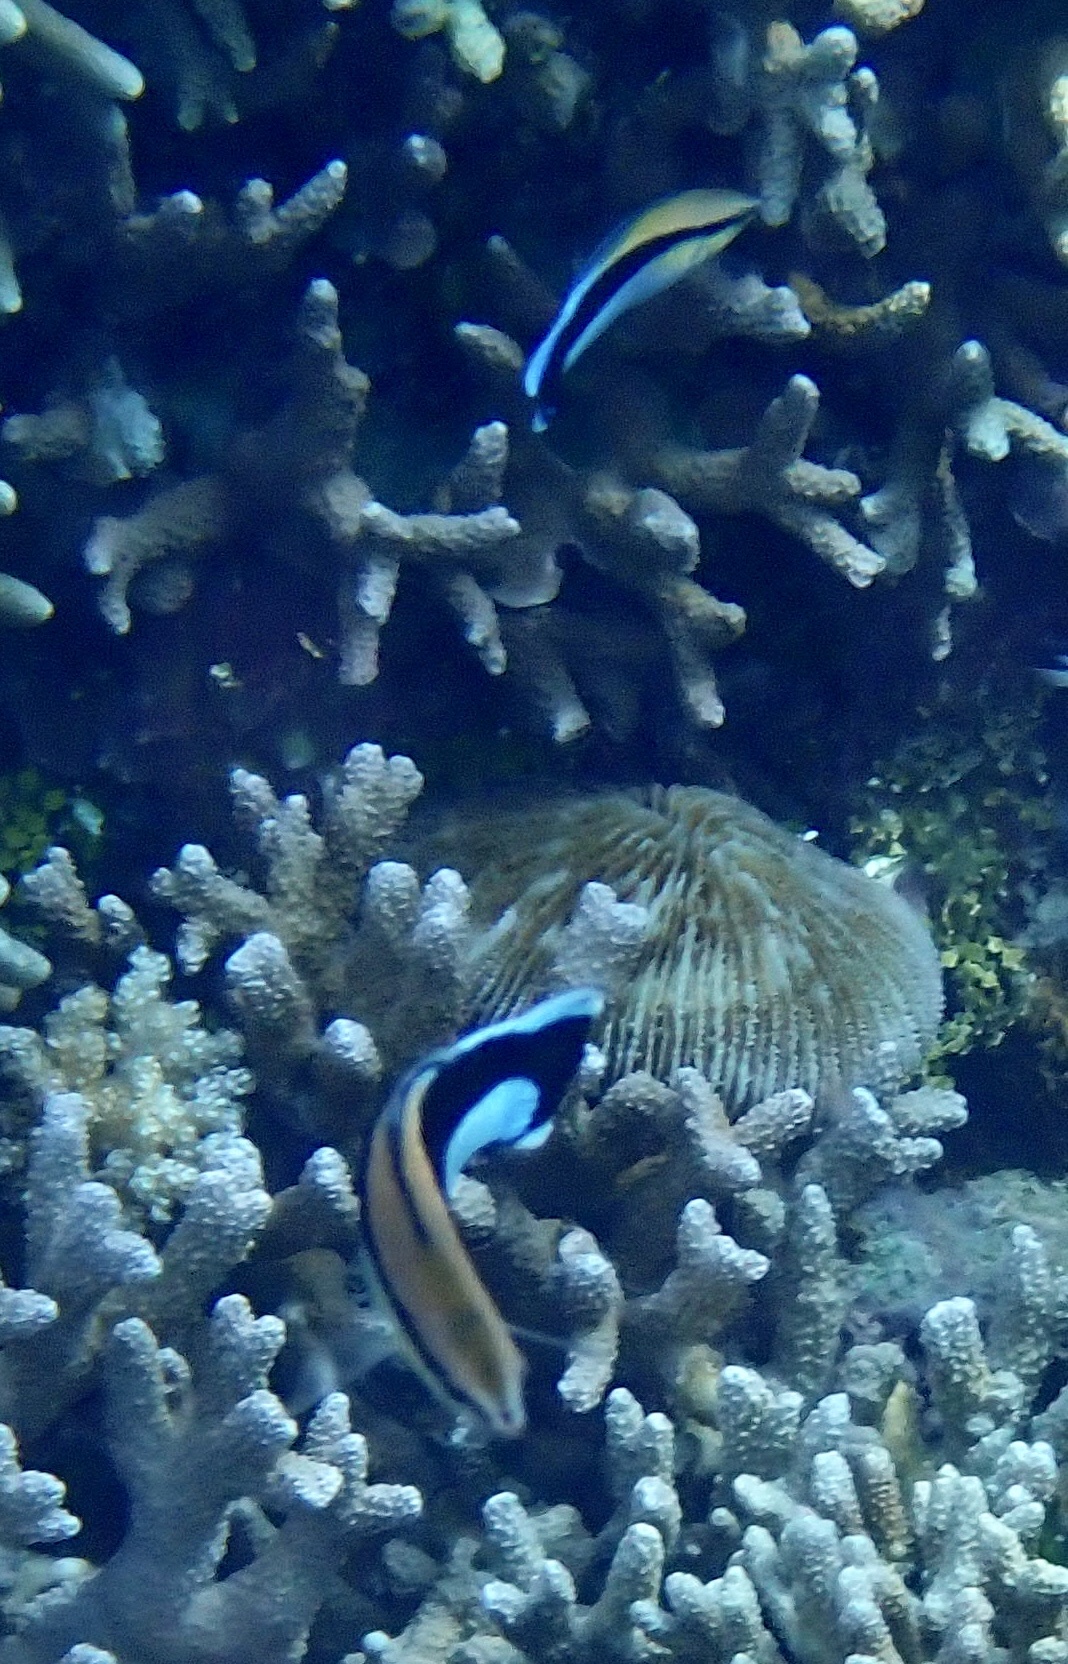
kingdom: Animalia
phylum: Chordata
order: Perciformes
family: Labridae
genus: Labroides
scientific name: Labroides dimidiatus
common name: Blue diesel wrasse
